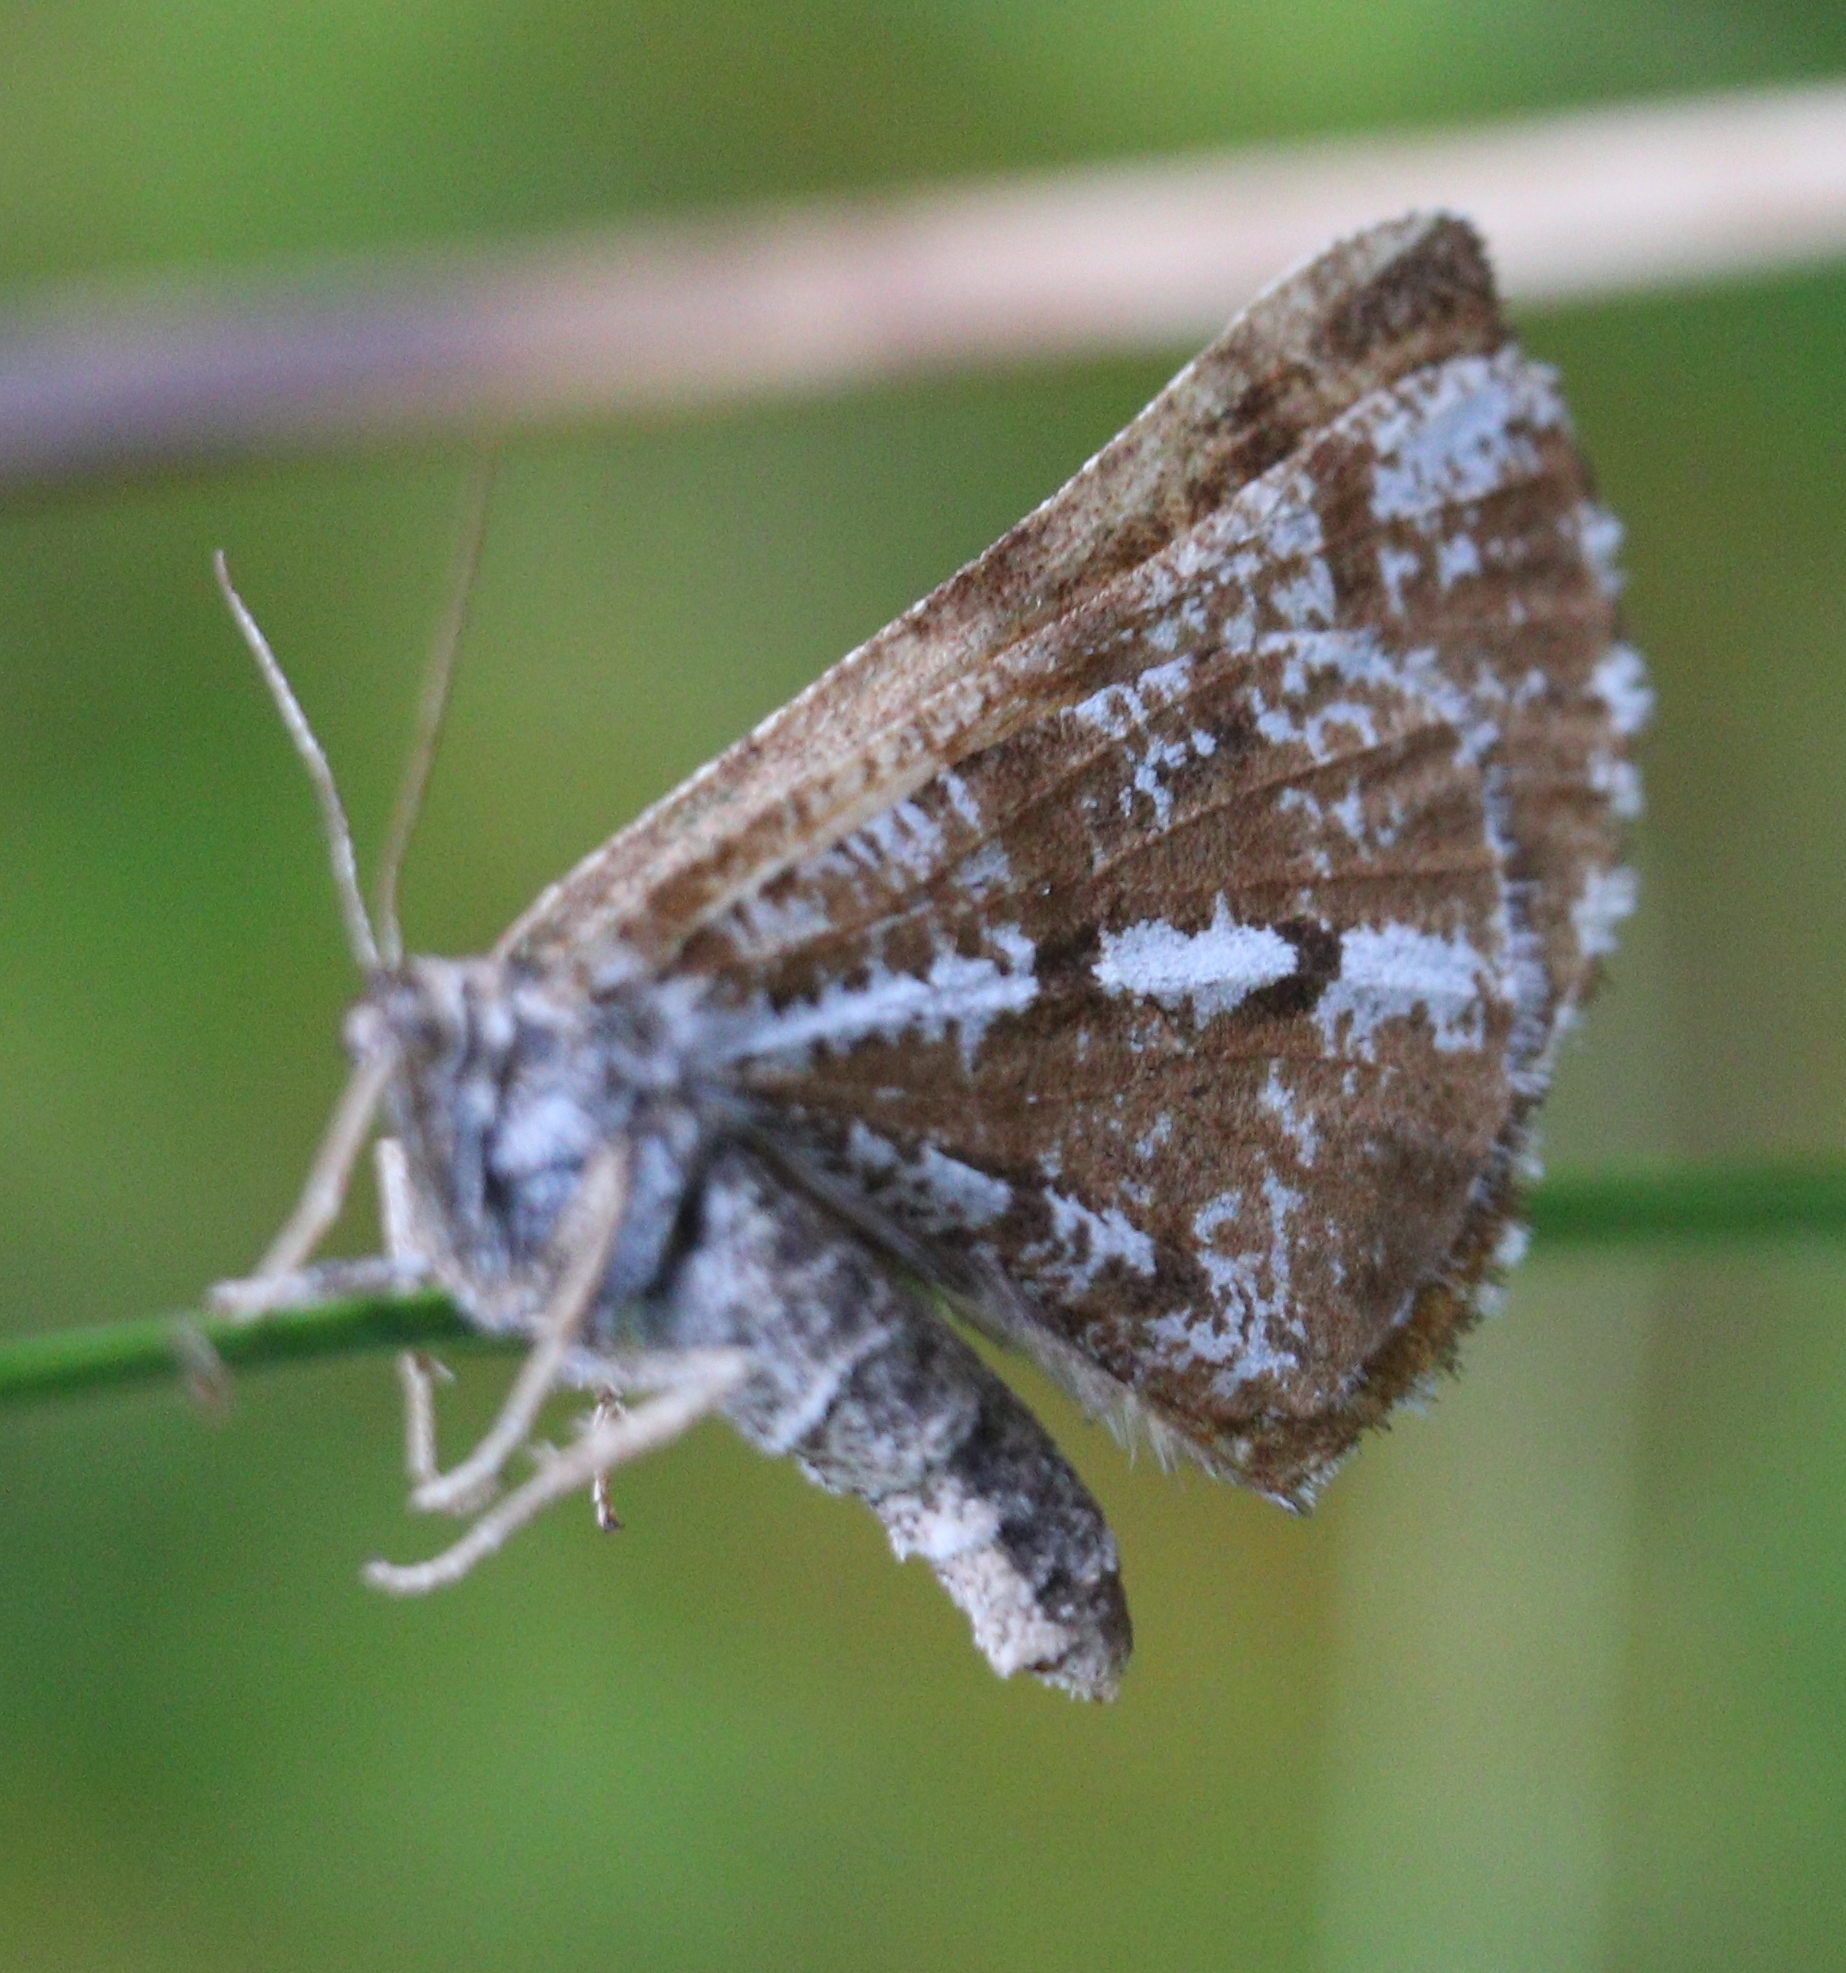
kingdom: Animalia
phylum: Arthropoda
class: Insecta
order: Lepidoptera
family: Geometridae
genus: Bupalus
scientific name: Bupalus piniaria
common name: Bordered white
